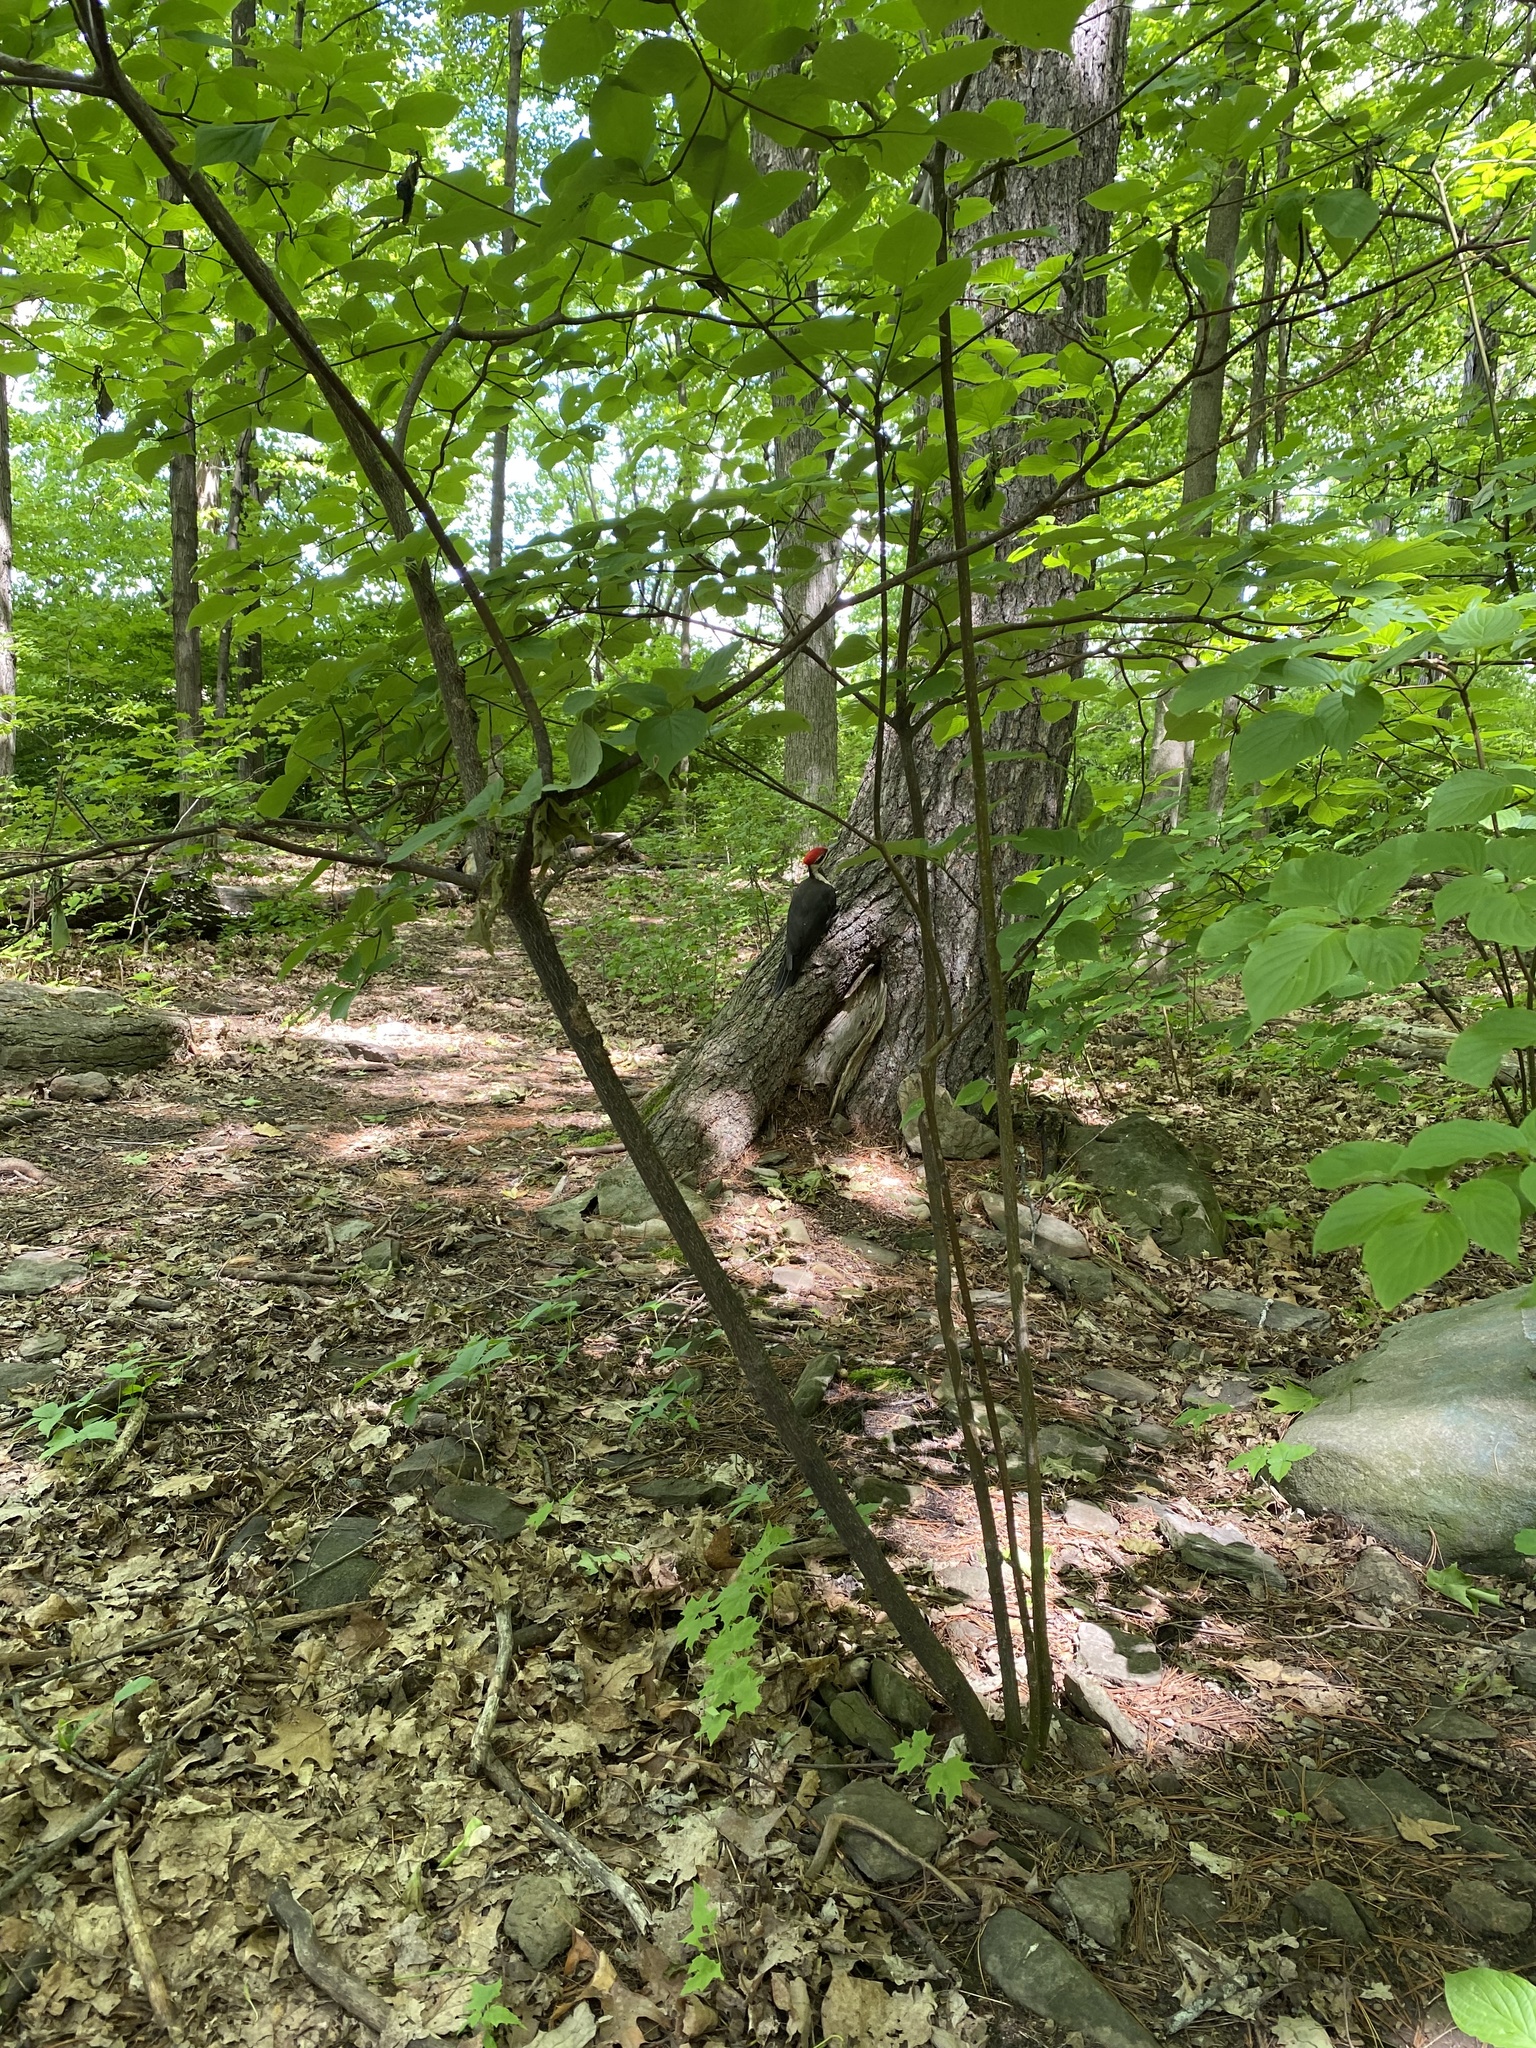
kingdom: Animalia
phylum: Chordata
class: Aves
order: Piciformes
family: Picidae
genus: Dryocopus
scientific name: Dryocopus pileatus
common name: Pileated woodpecker
